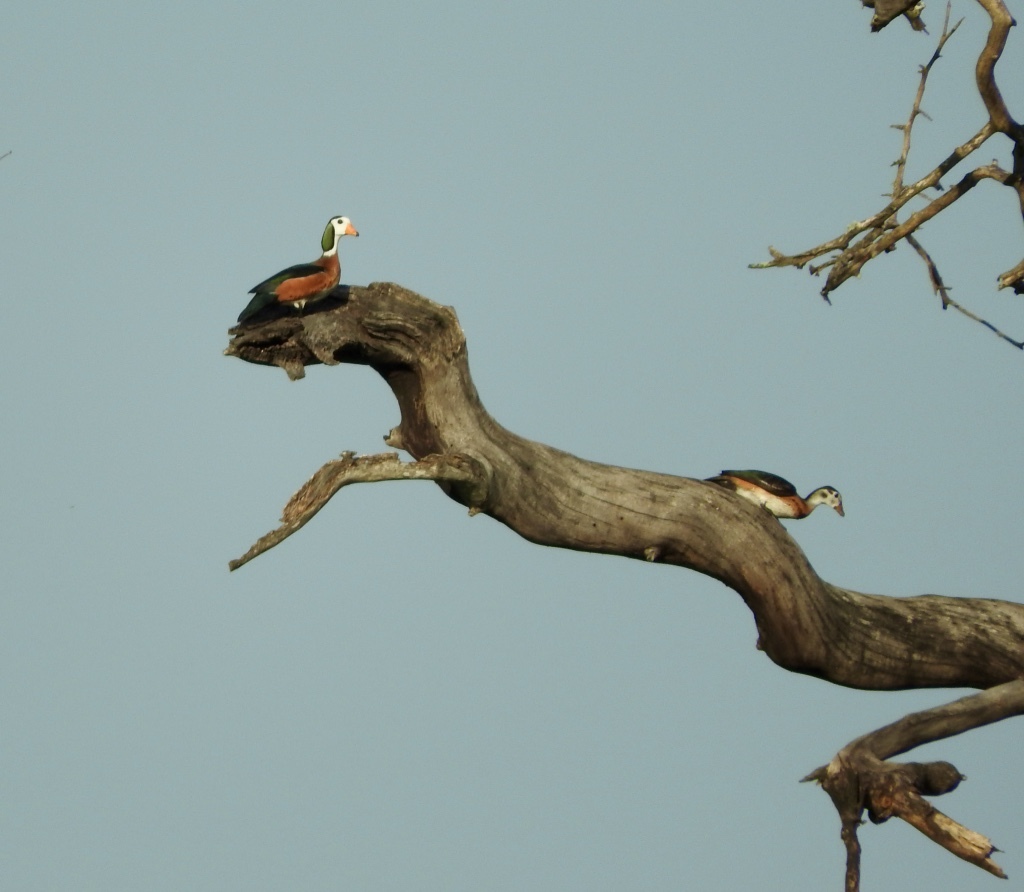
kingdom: Animalia
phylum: Chordata
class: Aves
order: Anseriformes
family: Anatidae
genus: Nettapus
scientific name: Nettapus auritus
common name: African pygmy-goose
